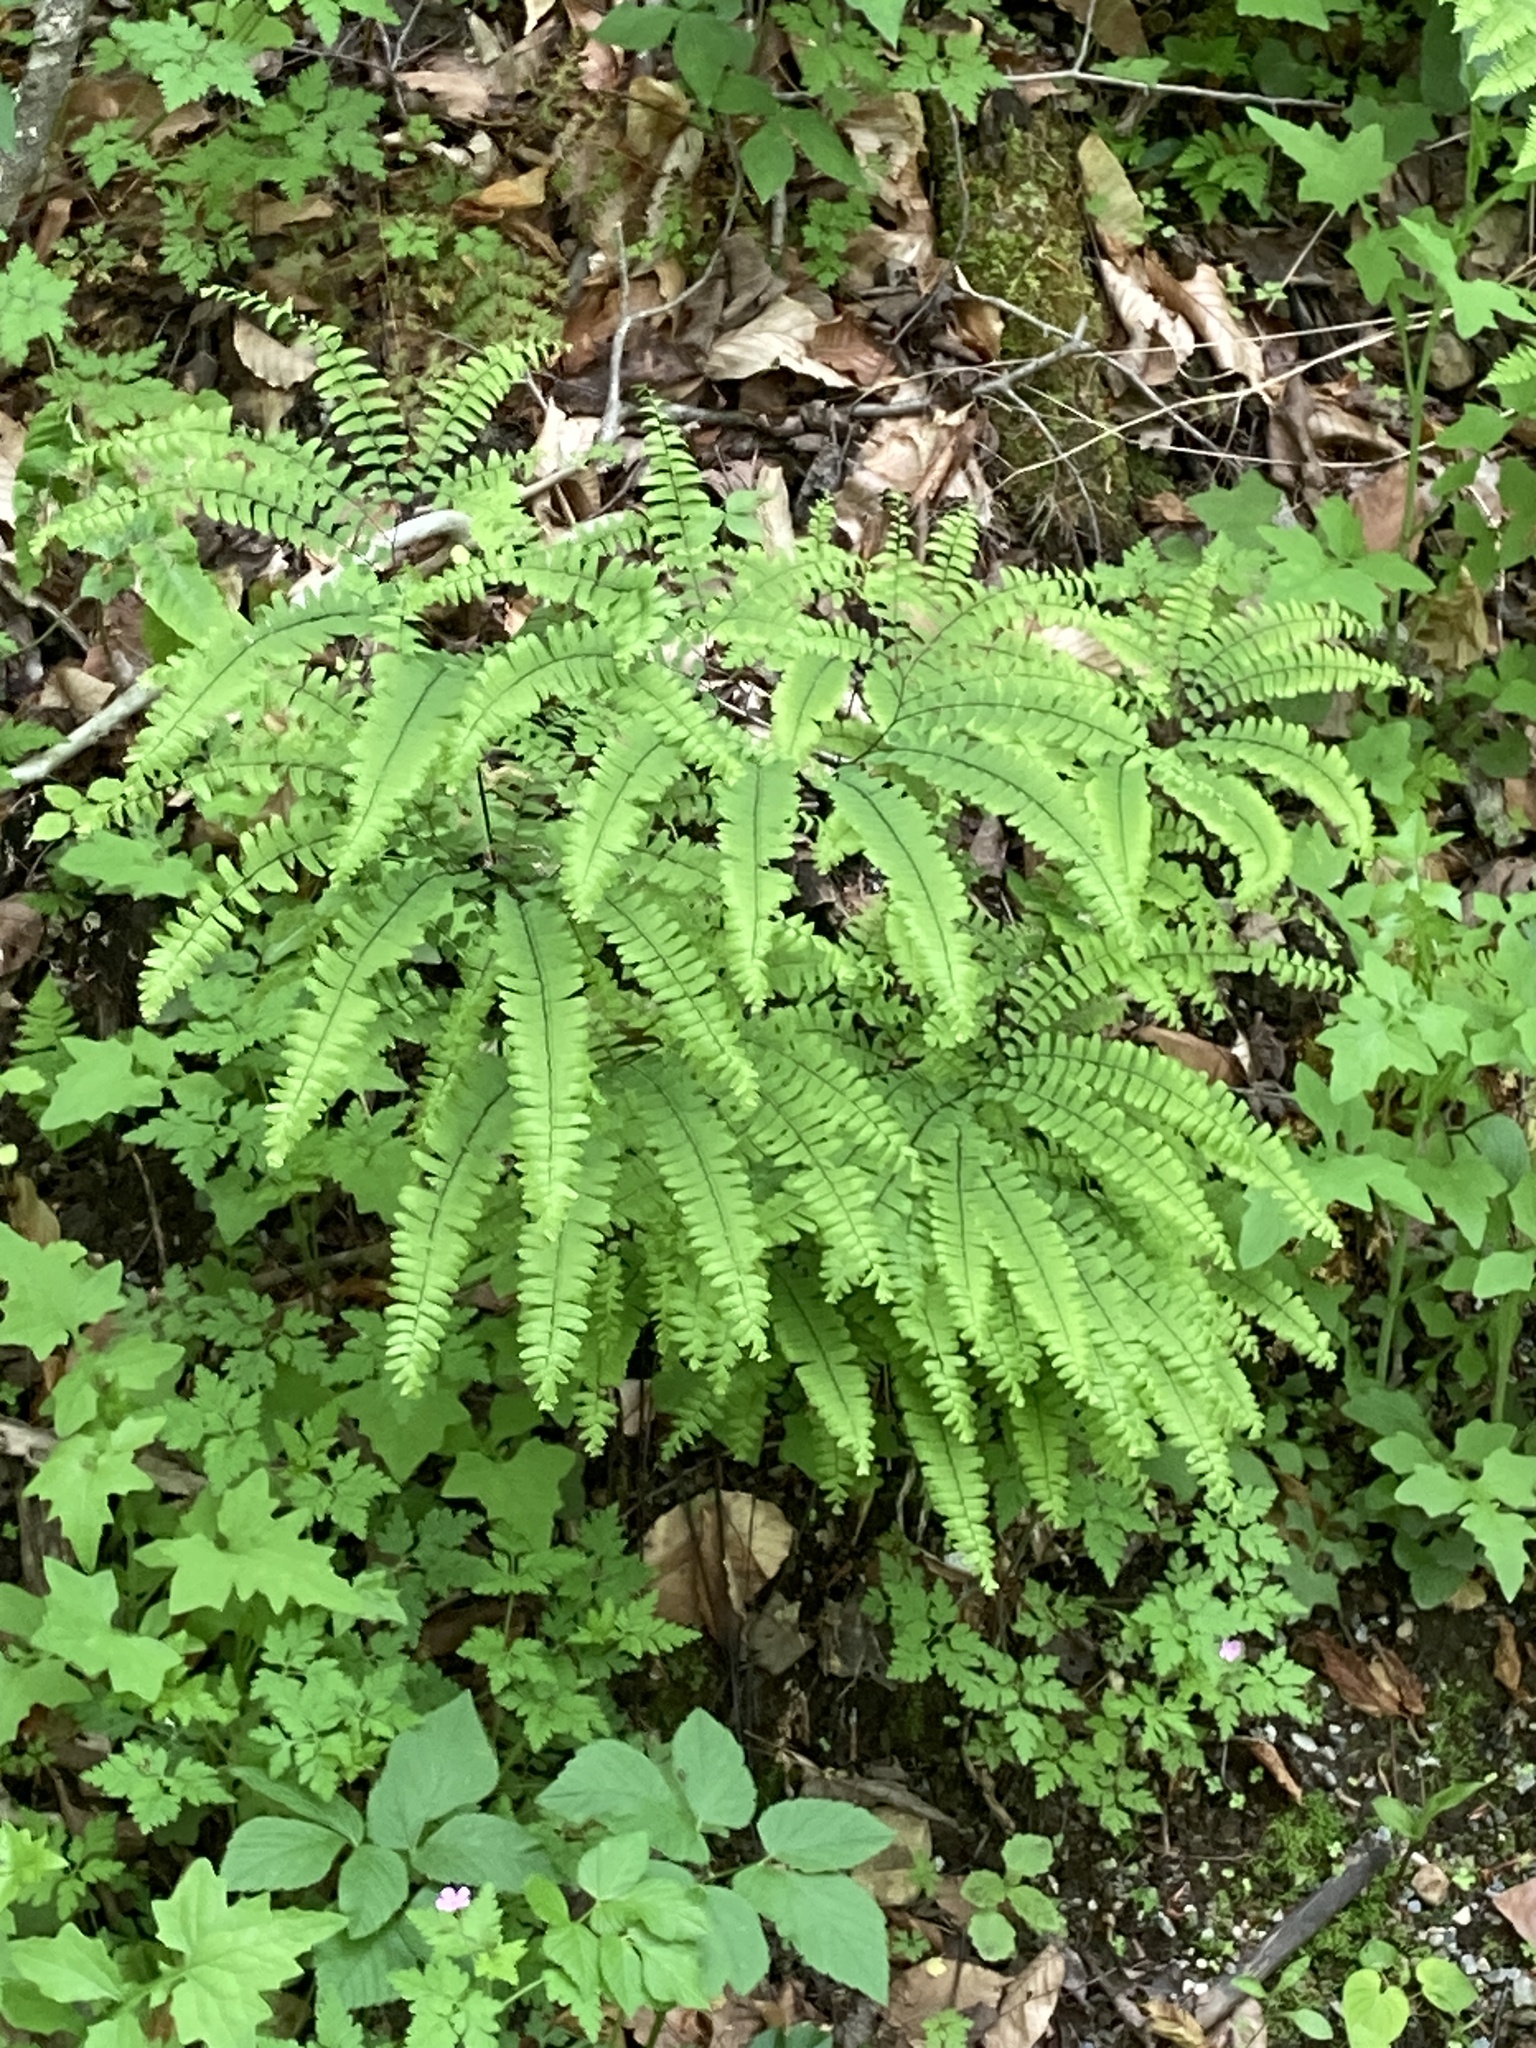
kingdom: Plantae
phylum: Tracheophyta
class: Polypodiopsida
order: Polypodiales
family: Pteridaceae
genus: Adiantum
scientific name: Adiantum pedatum
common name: Five-finger fern
